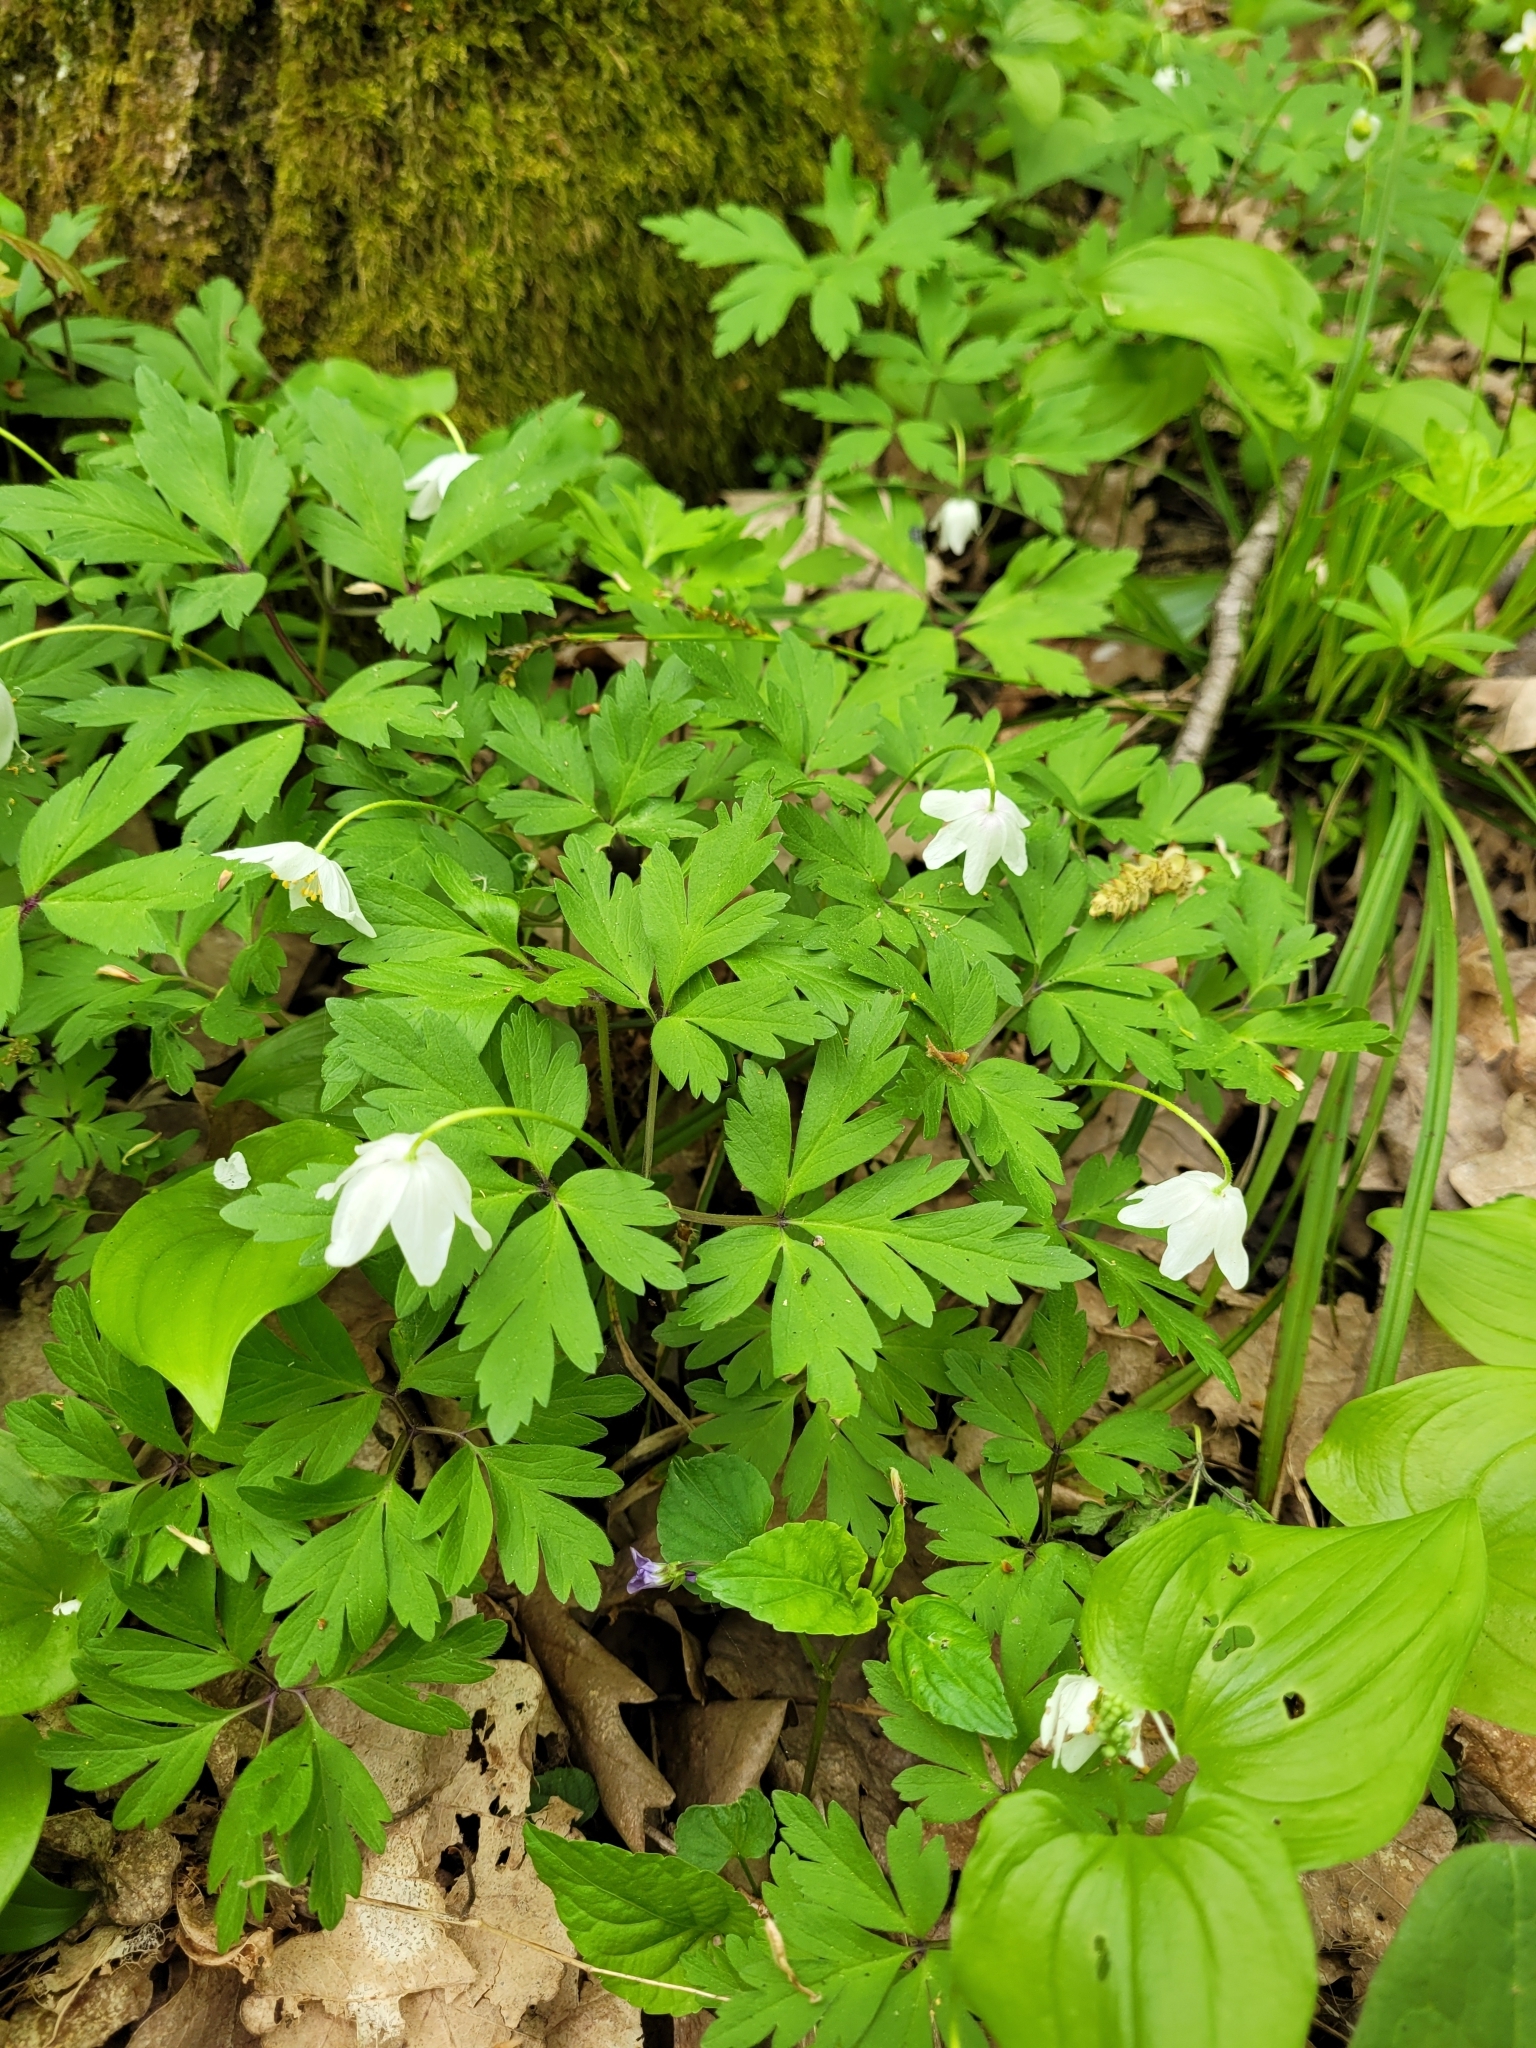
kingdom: Plantae
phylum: Tracheophyta
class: Magnoliopsida
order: Ranunculales
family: Ranunculaceae
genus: Anemone
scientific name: Anemone nemorosa
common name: Wood anemone
